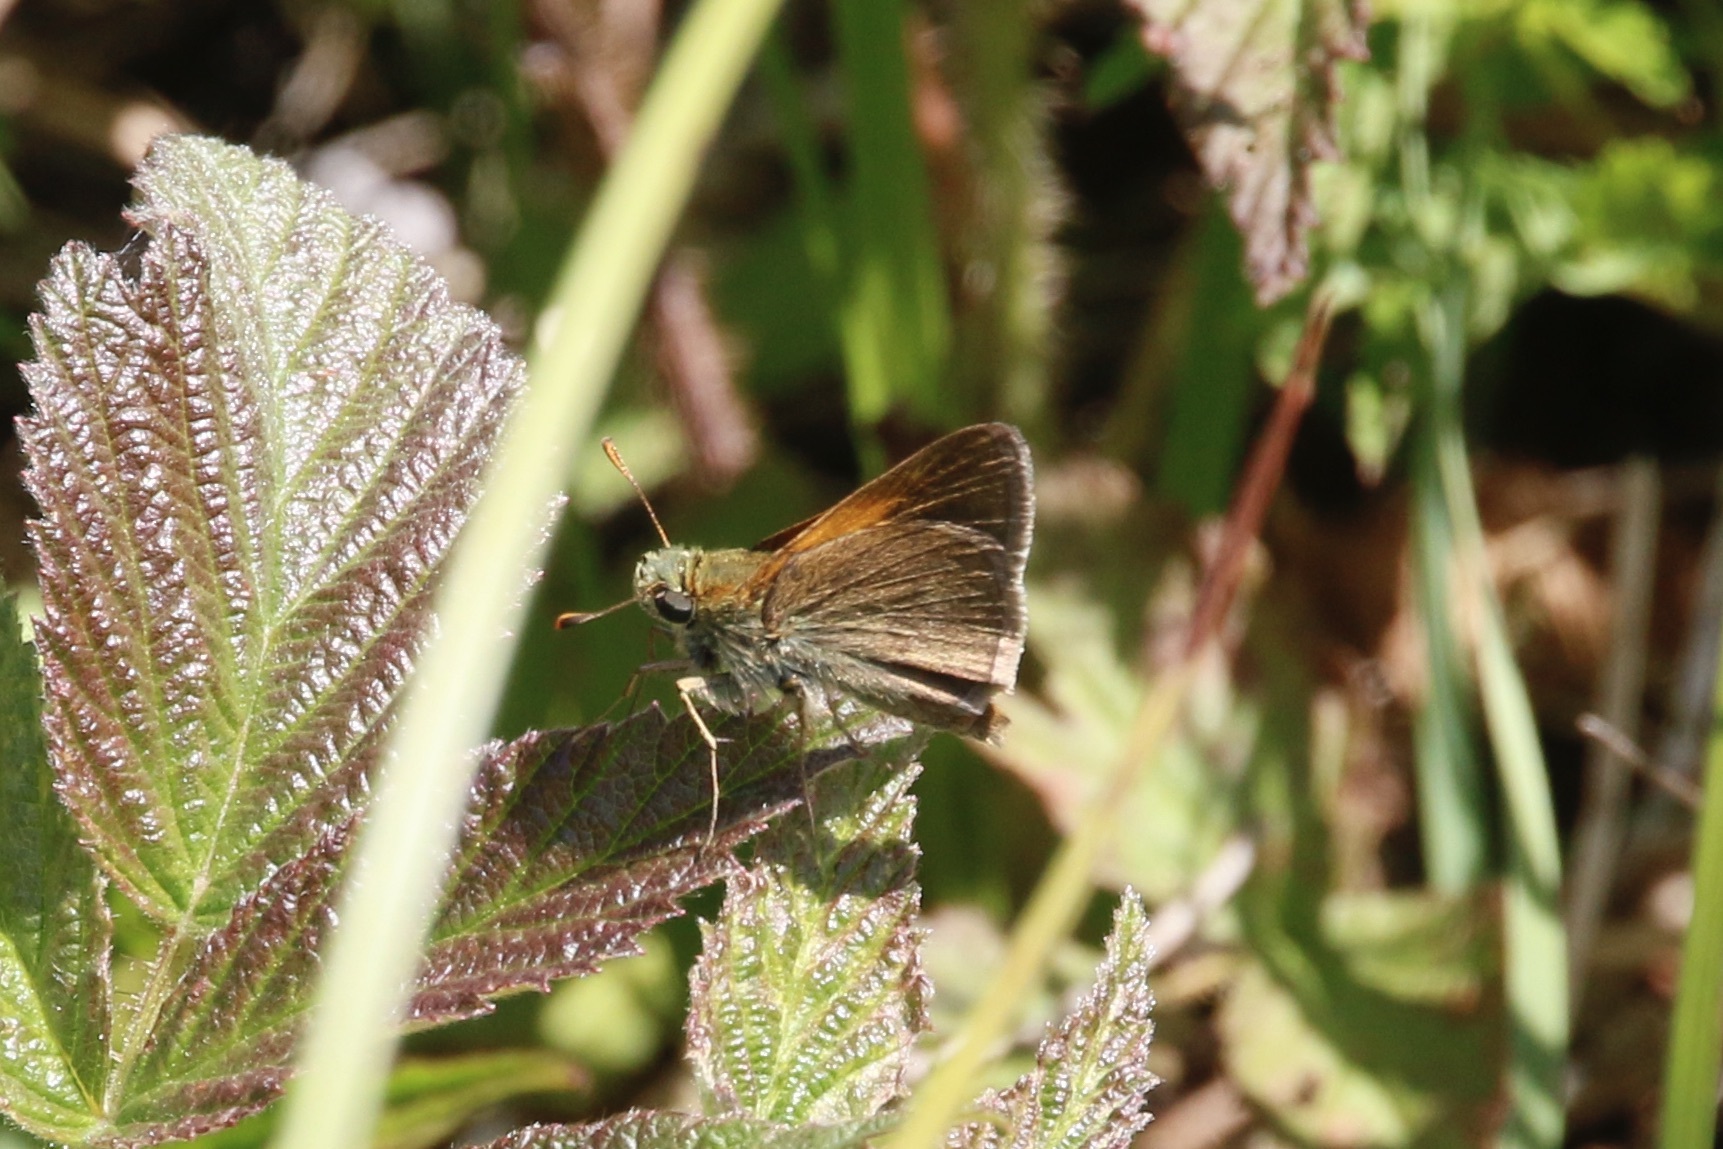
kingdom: Animalia
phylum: Arthropoda
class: Insecta
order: Lepidoptera
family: Hesperiidae
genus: Polites
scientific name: Polites themistocles
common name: Tawny-edged skipper
